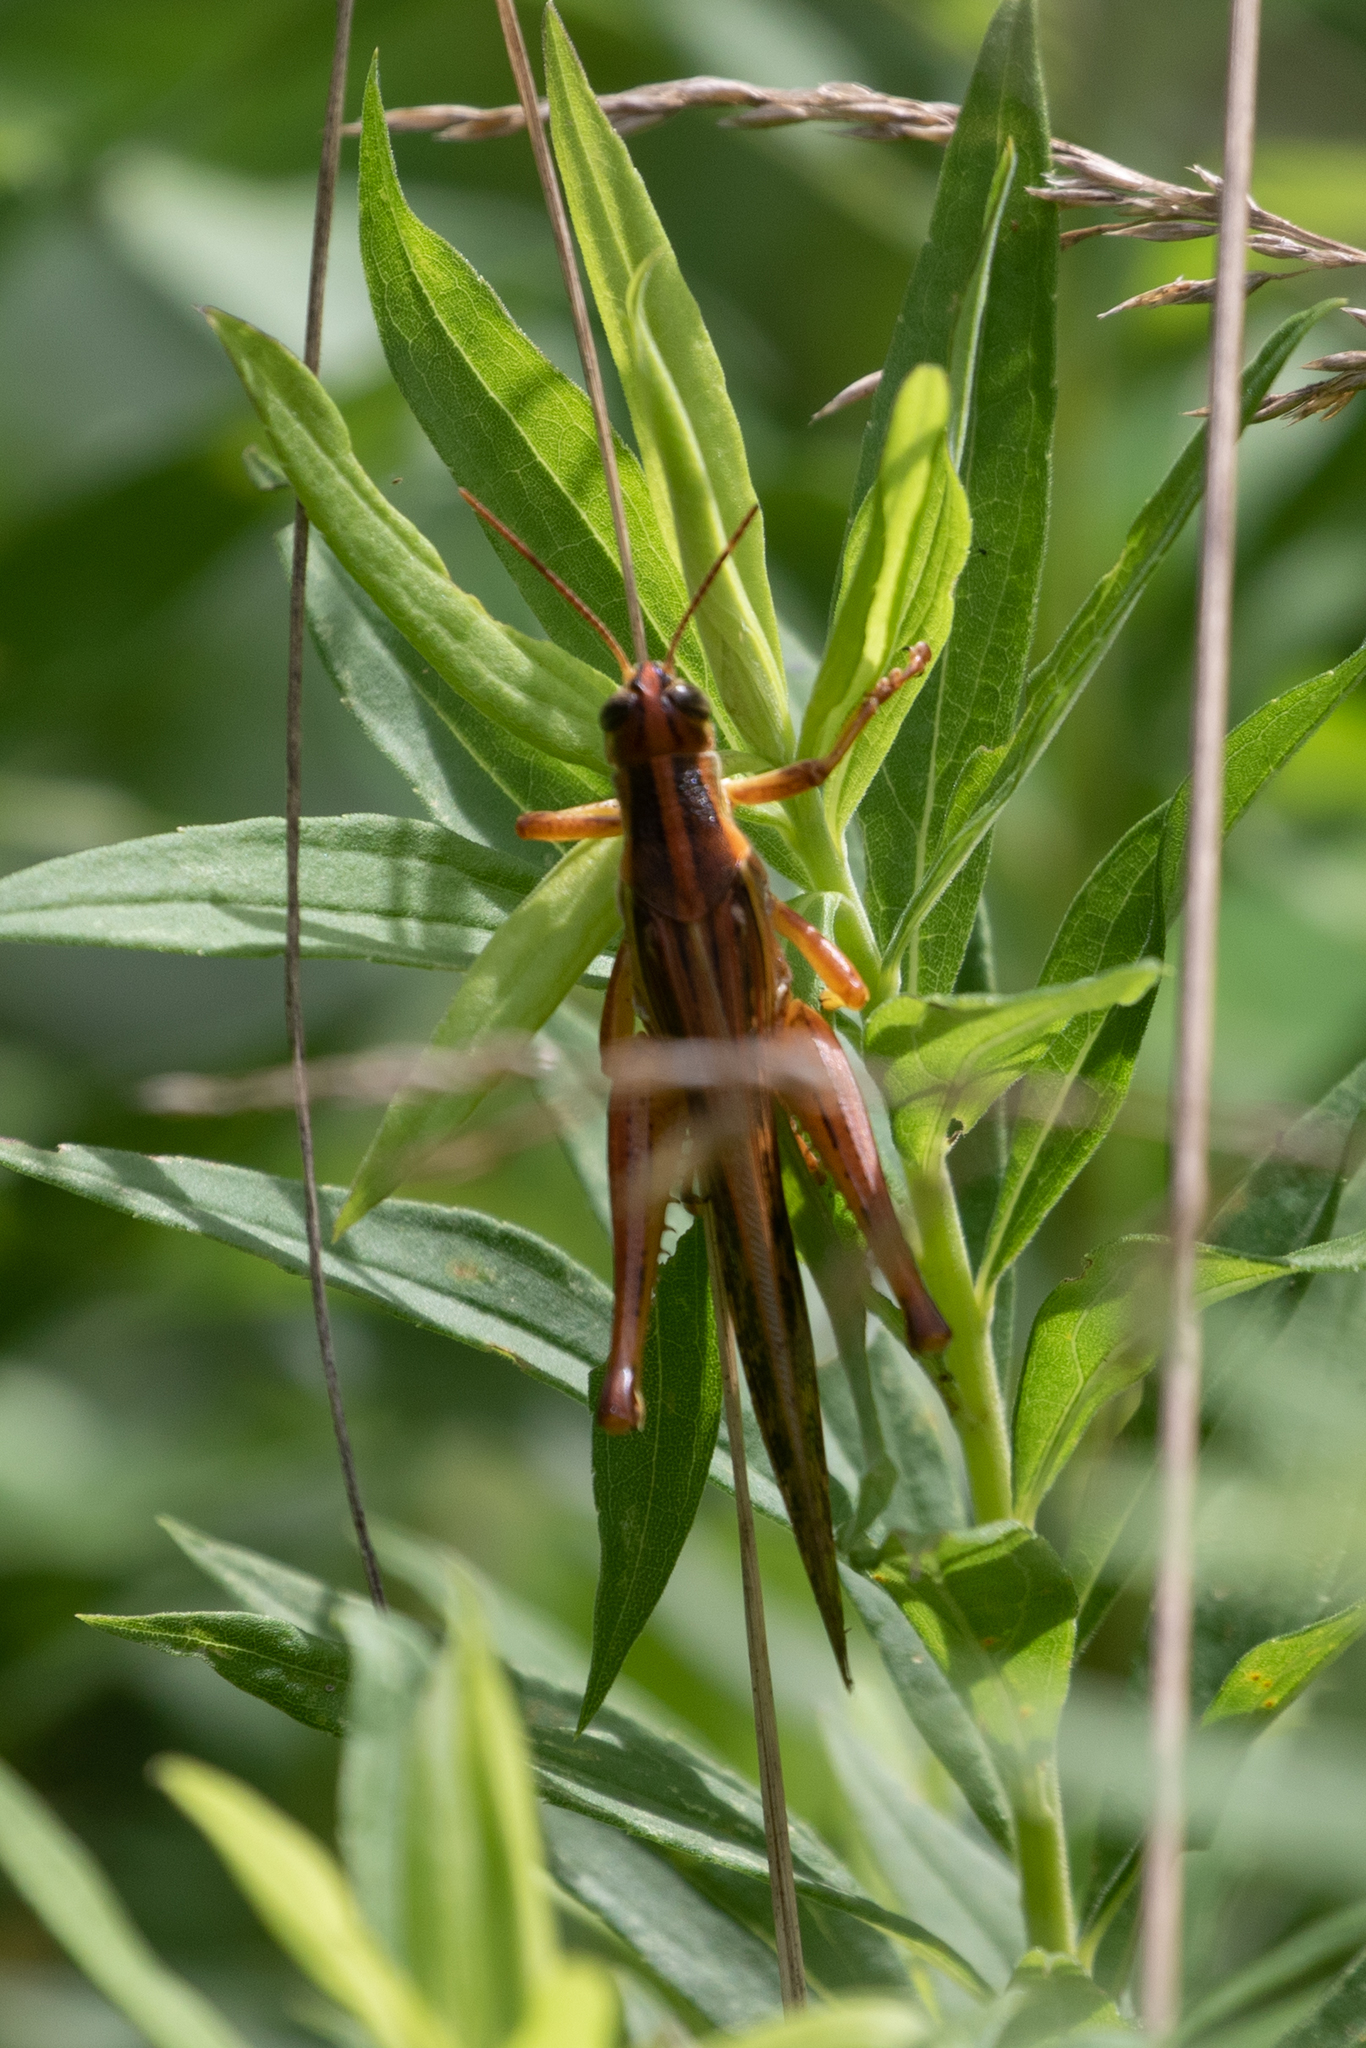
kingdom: Animalia
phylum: Arthropoda
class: Insecta
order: Orthoptera
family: Acrididae
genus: Schistocerca
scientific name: Schistocerca americana
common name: American bird locust
